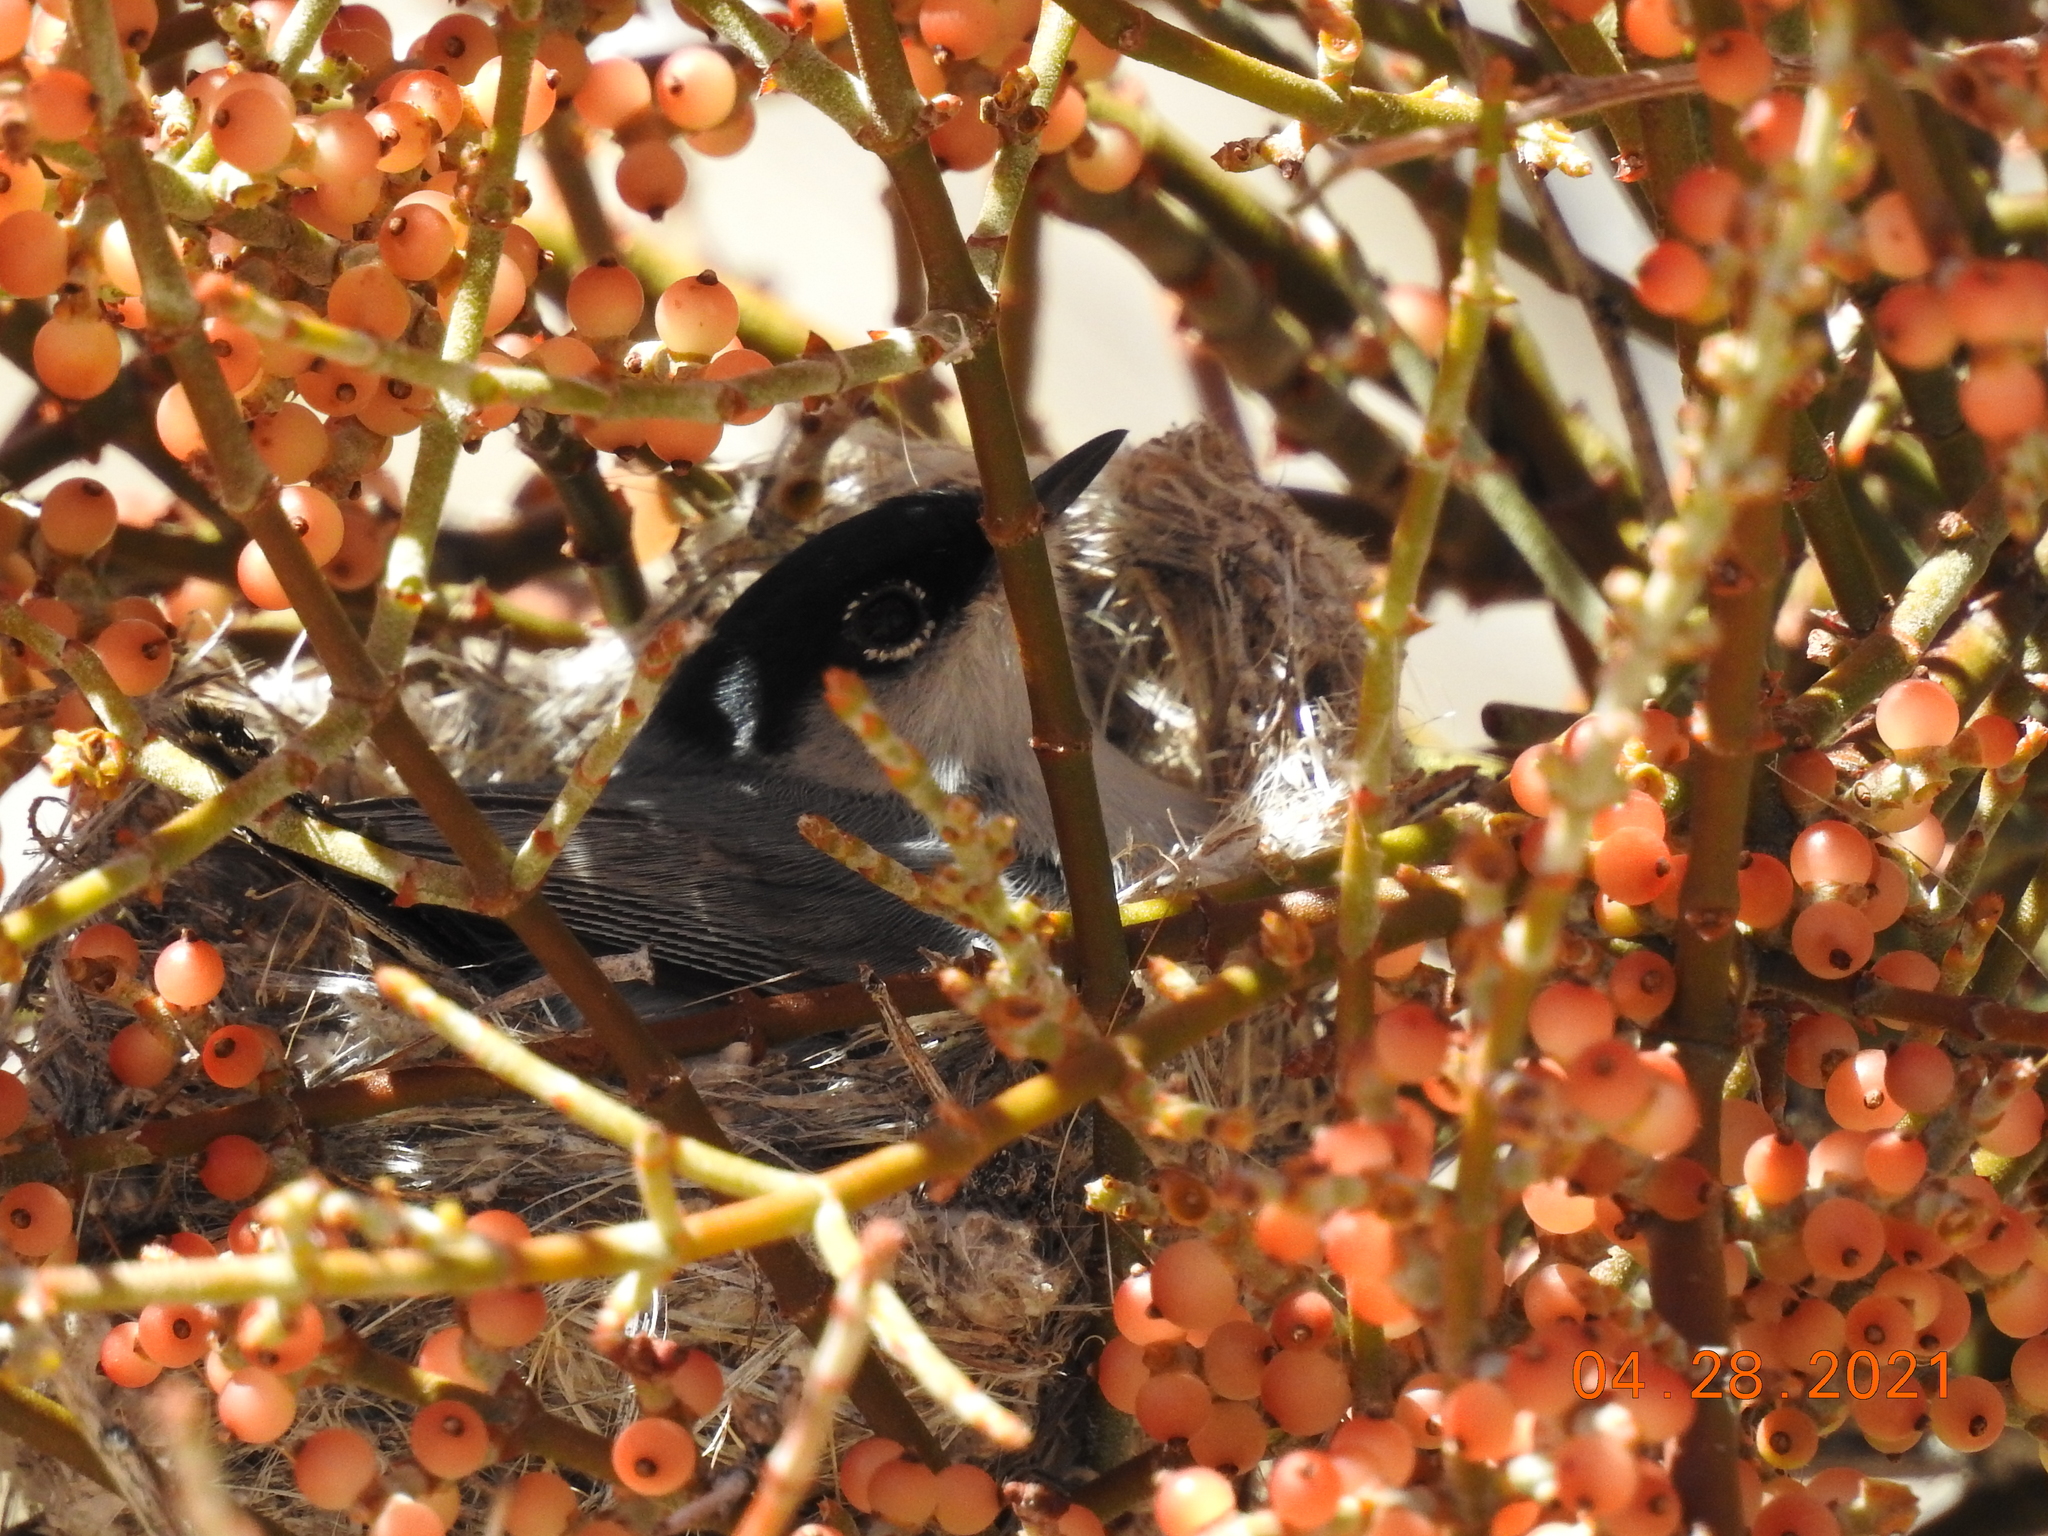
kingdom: Animalia
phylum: Chordata
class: Aves
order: Passeriformes
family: Polioptilidae
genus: Polioptila
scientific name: Polioptila melanura
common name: Black-tailed gnatcatcher
